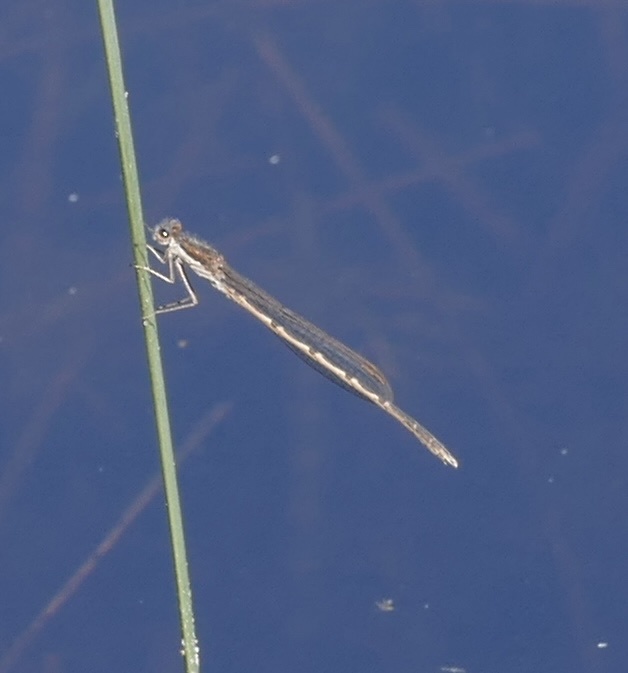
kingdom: Animalia
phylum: Arthropoda
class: Insecta
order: Odonata
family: Lestidae
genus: Sympecma
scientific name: Sympecma fusca
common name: Common winter damsel
